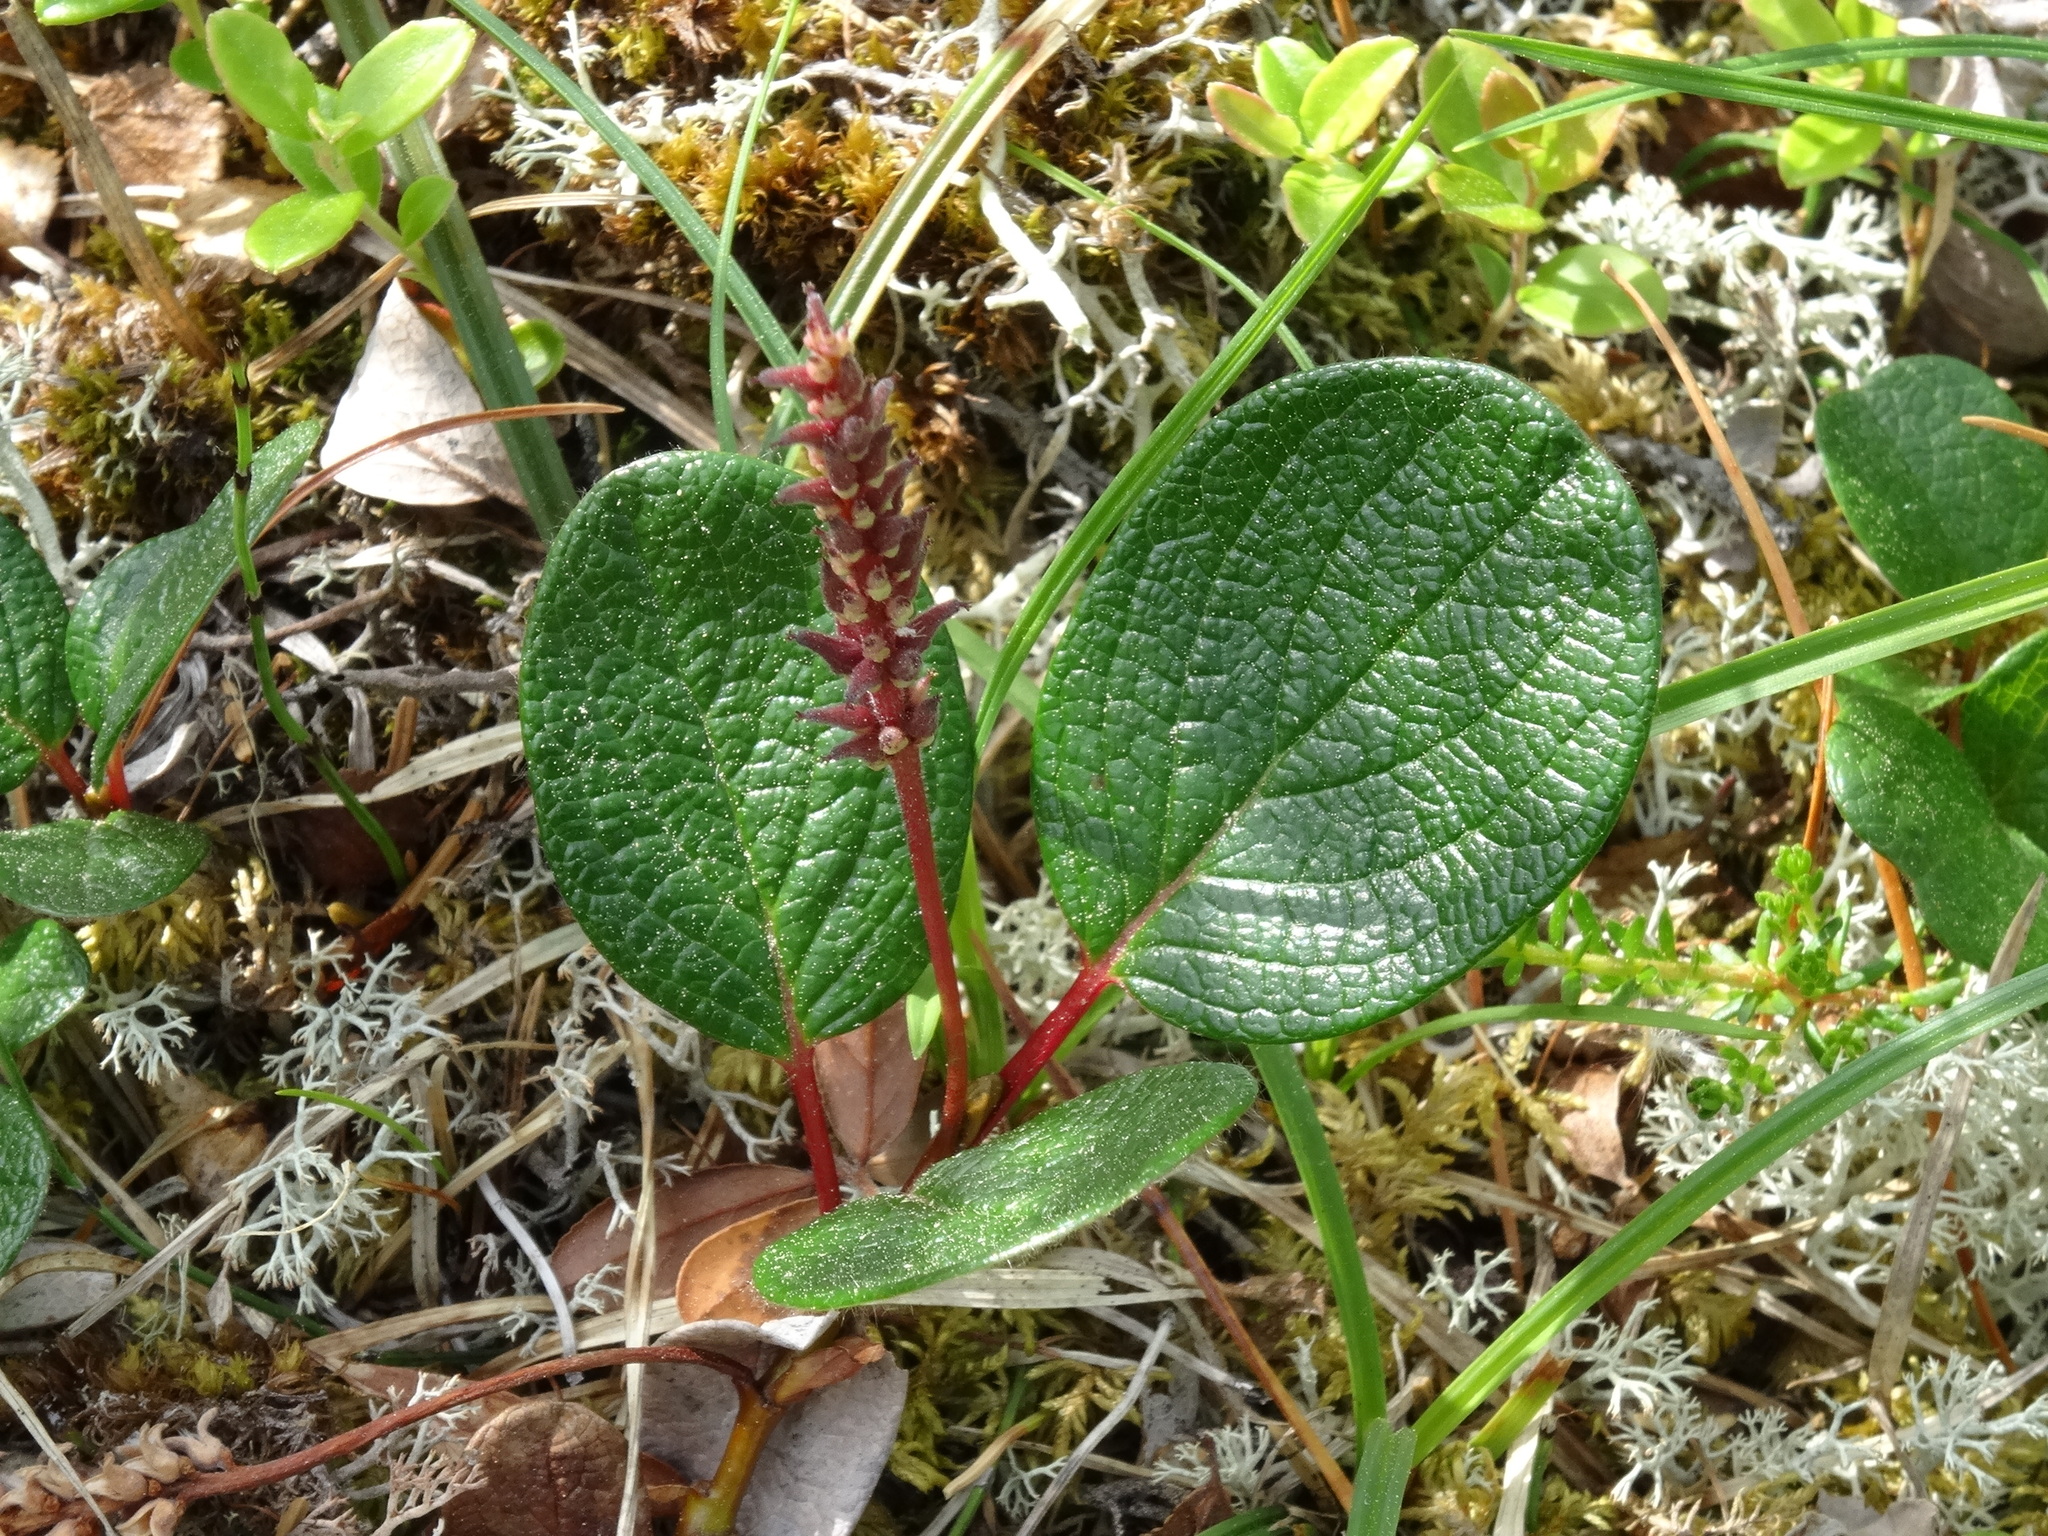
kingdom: Plantae
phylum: Tracheophyta
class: Magnoliopsida
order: Malpighiales
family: Salicaceae
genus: Salix
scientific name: Salix reticulata
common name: Net-leaved willow
